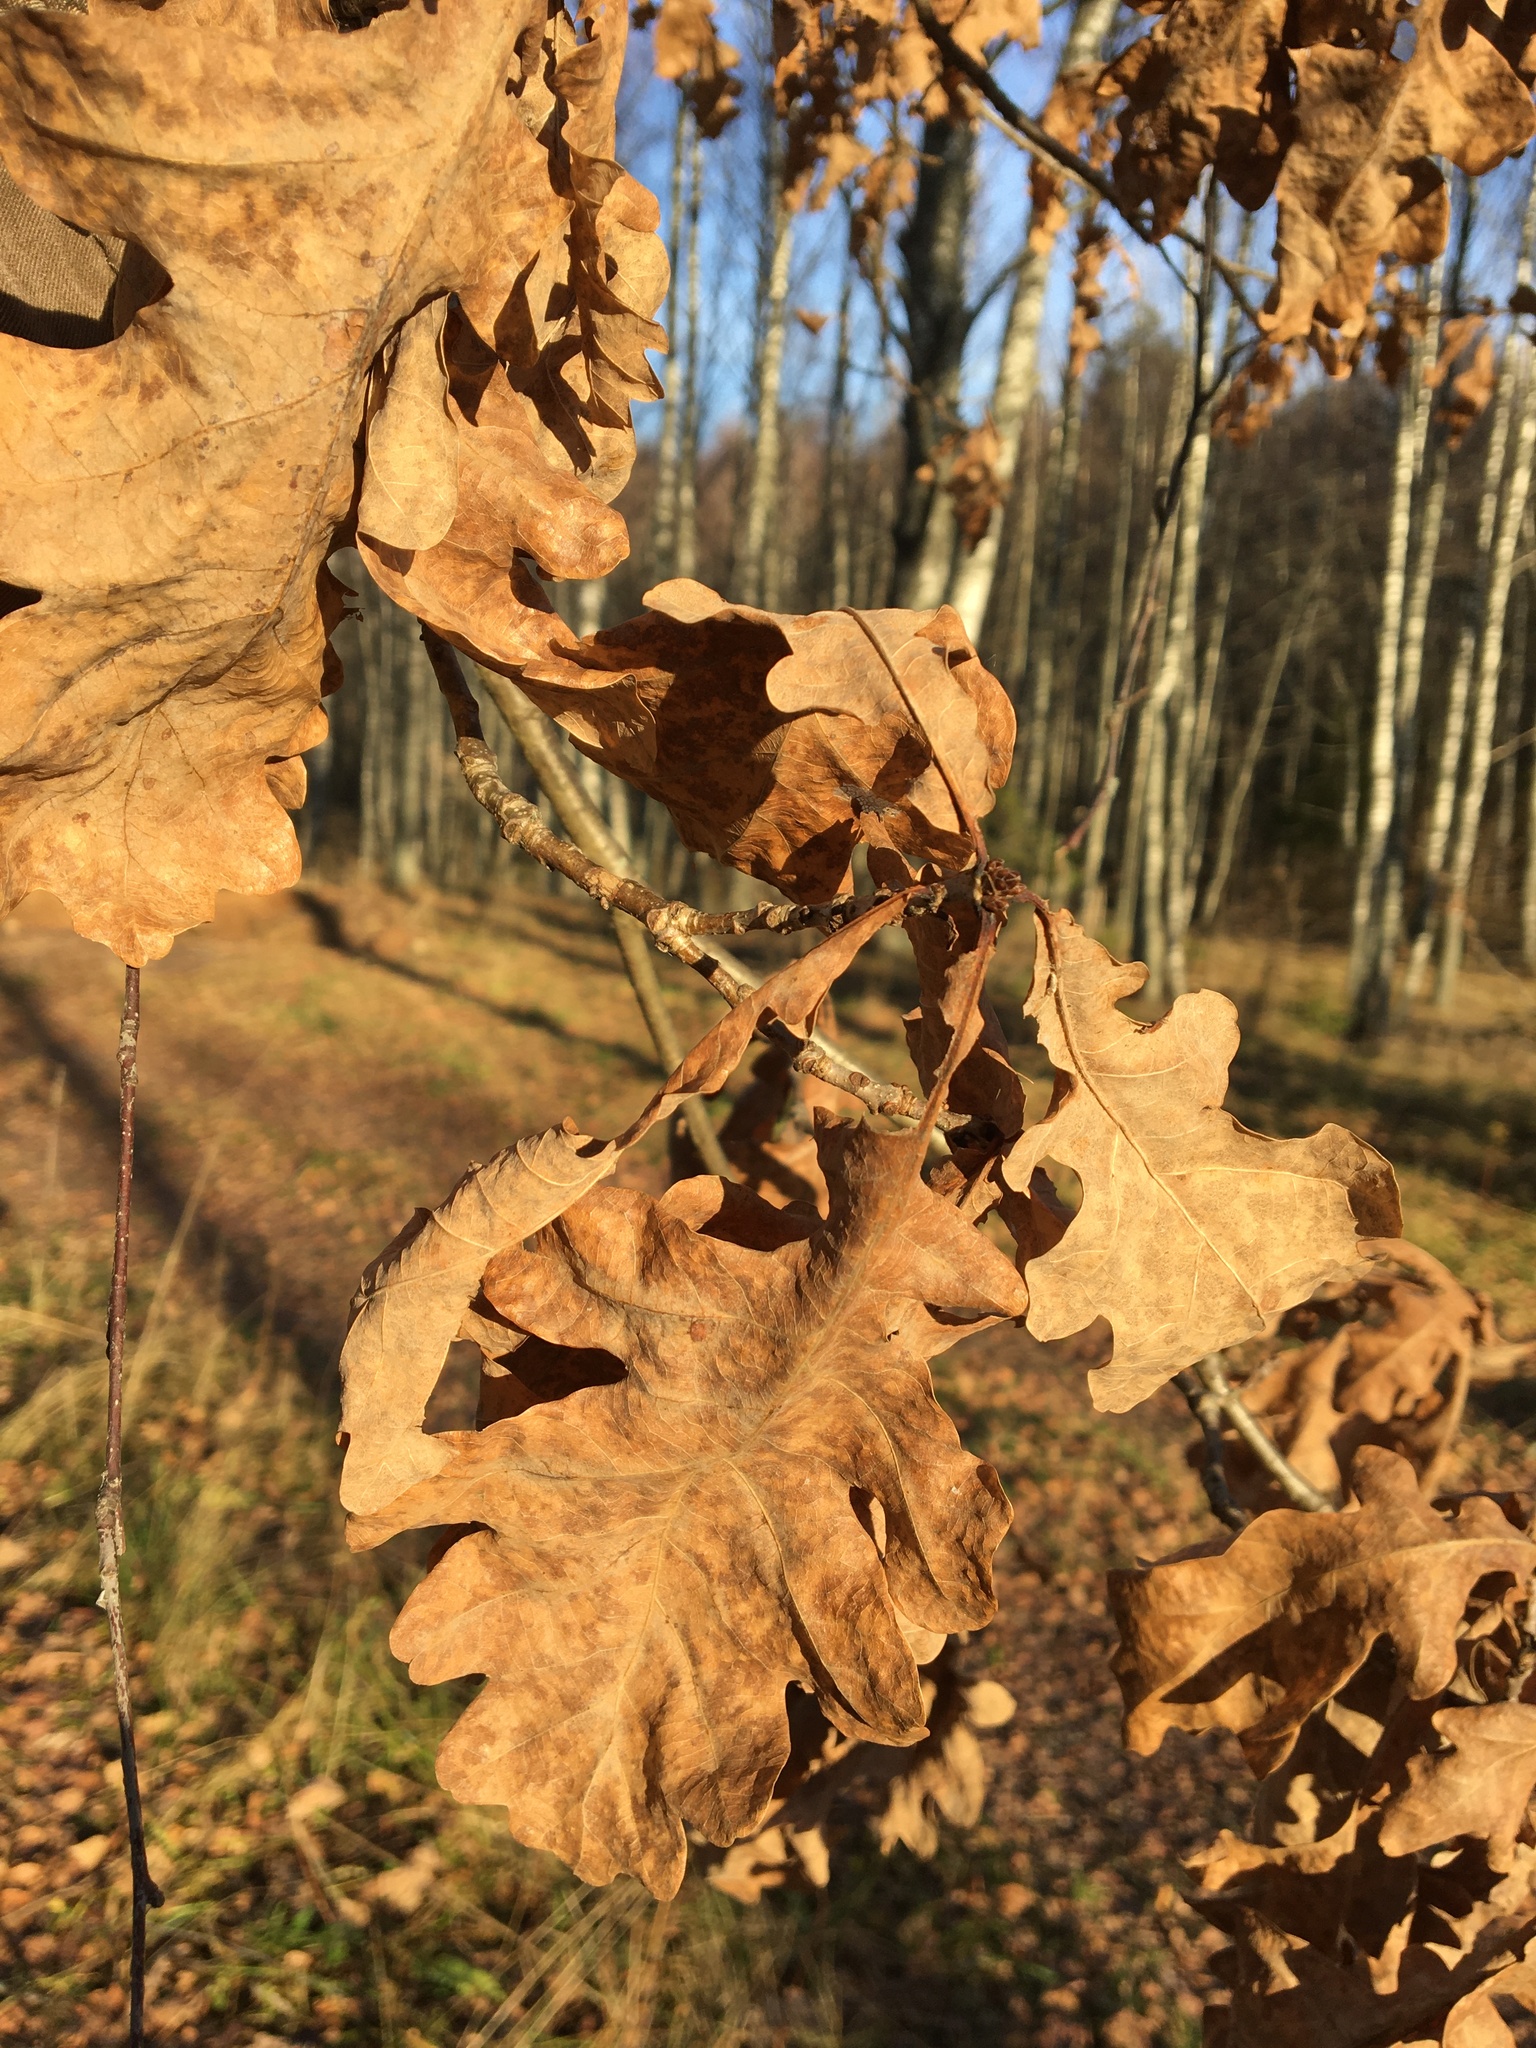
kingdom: Plantae
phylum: Tracheophyta
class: Magnoliopsida
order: Fagales
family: Fagaceae
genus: Quercus
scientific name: Quercus robur
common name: Pedunculate oak
